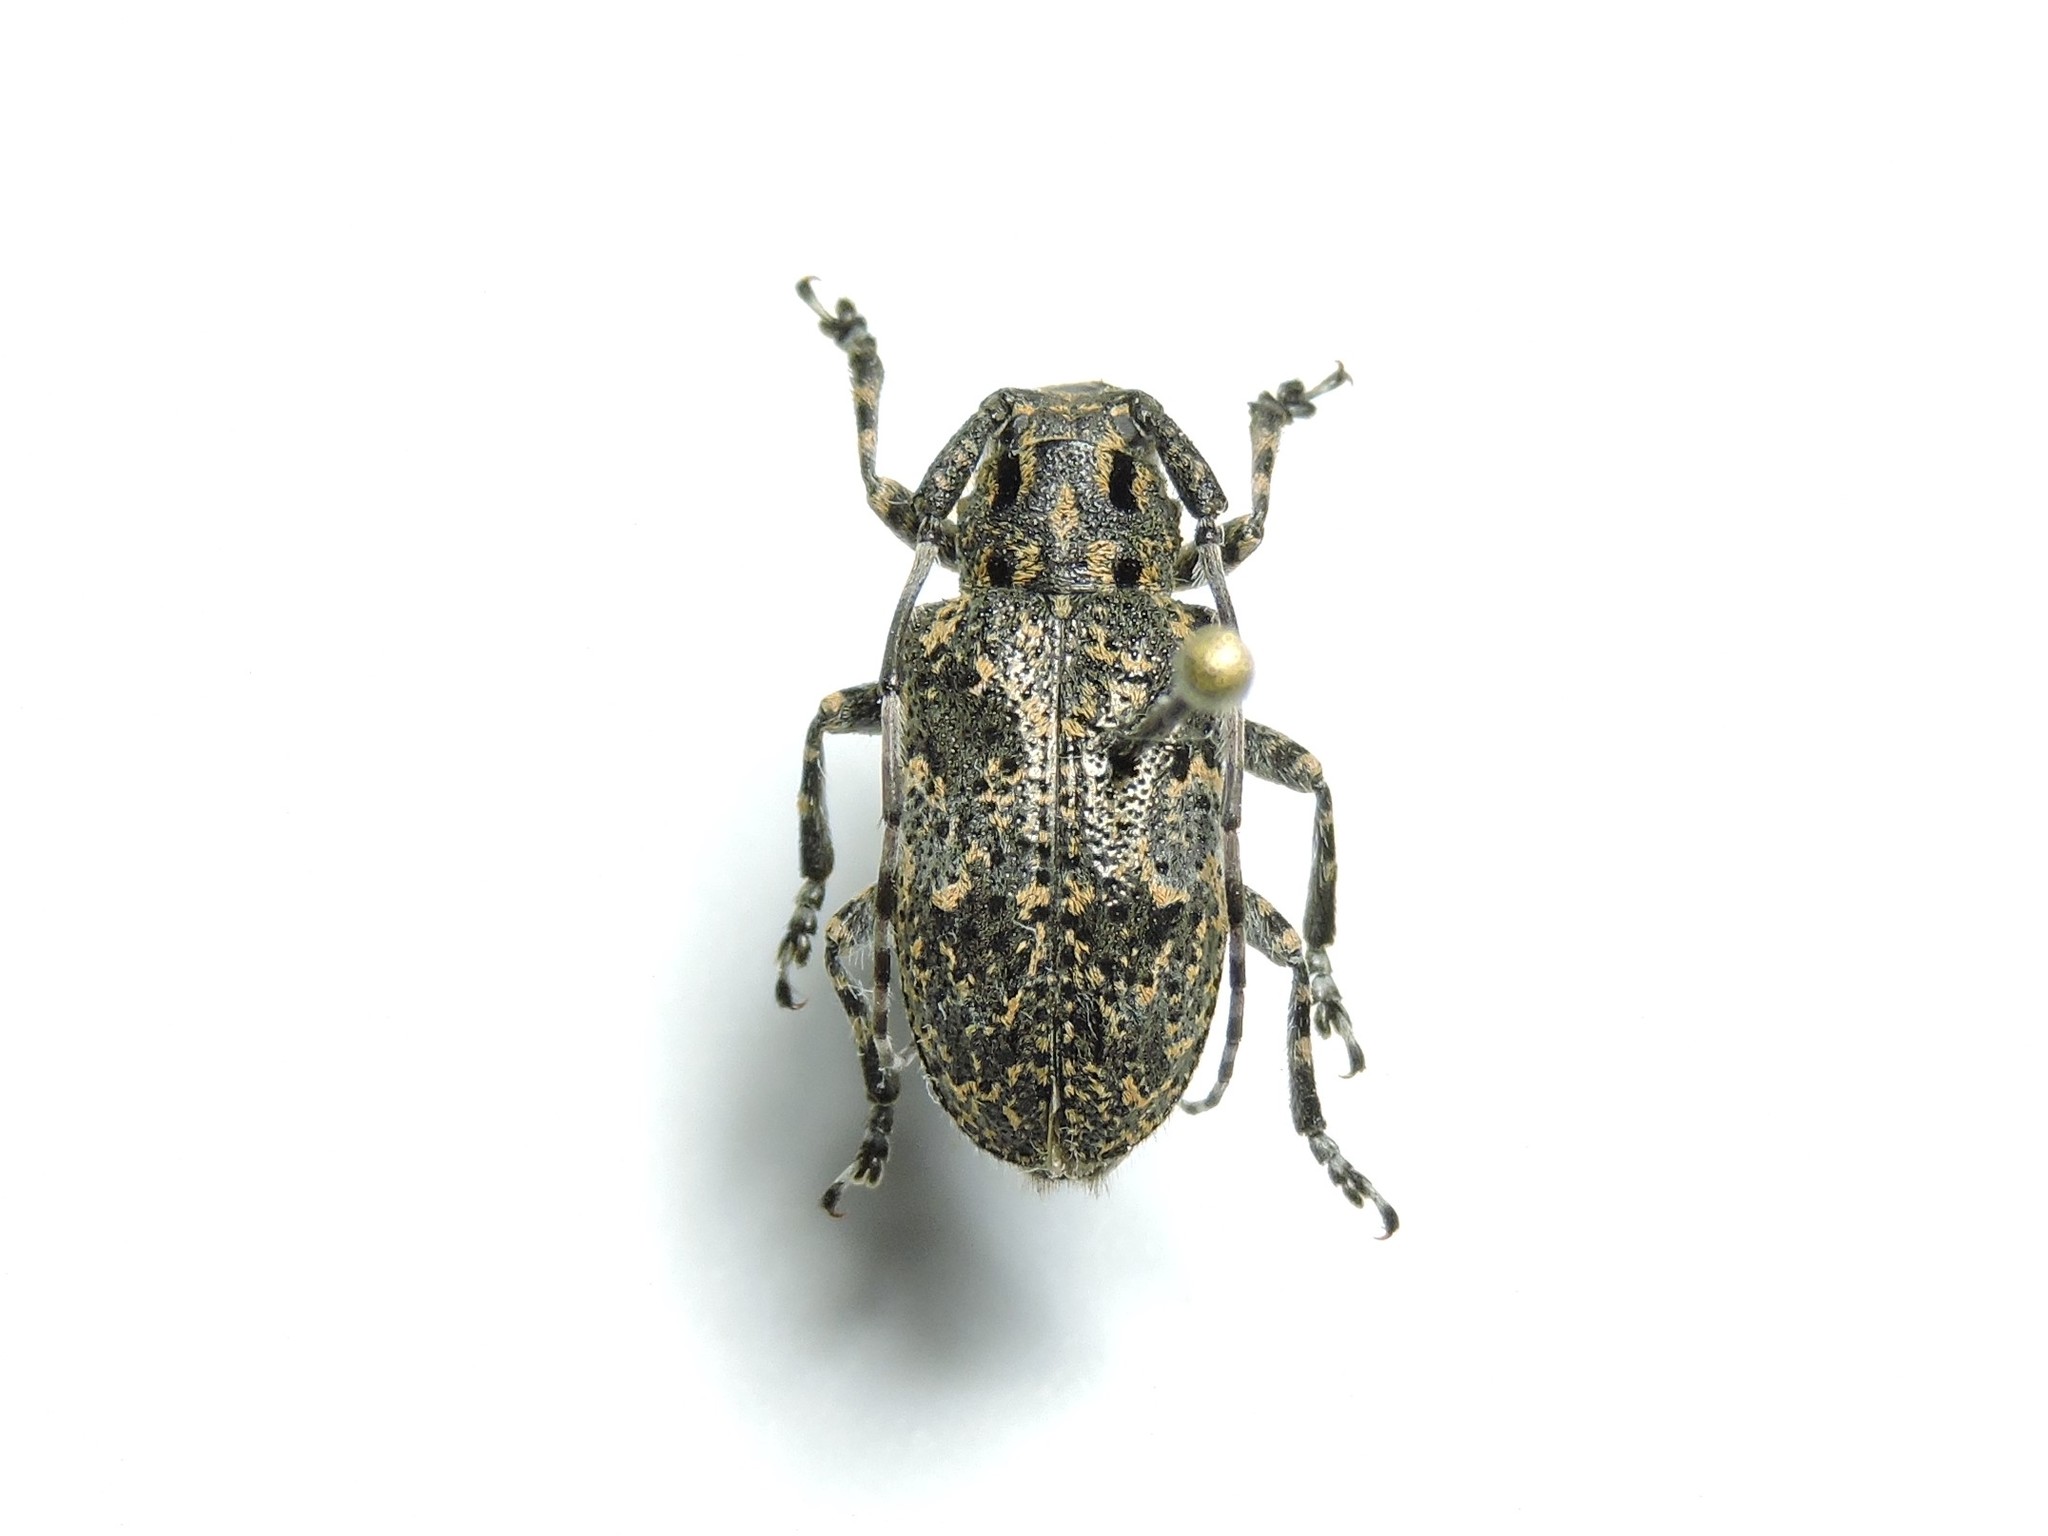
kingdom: Animalia
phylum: Arthropoda
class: Insecta
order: Coleoptera
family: Cerambycidae
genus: Mesosa
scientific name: Mesosa myops
